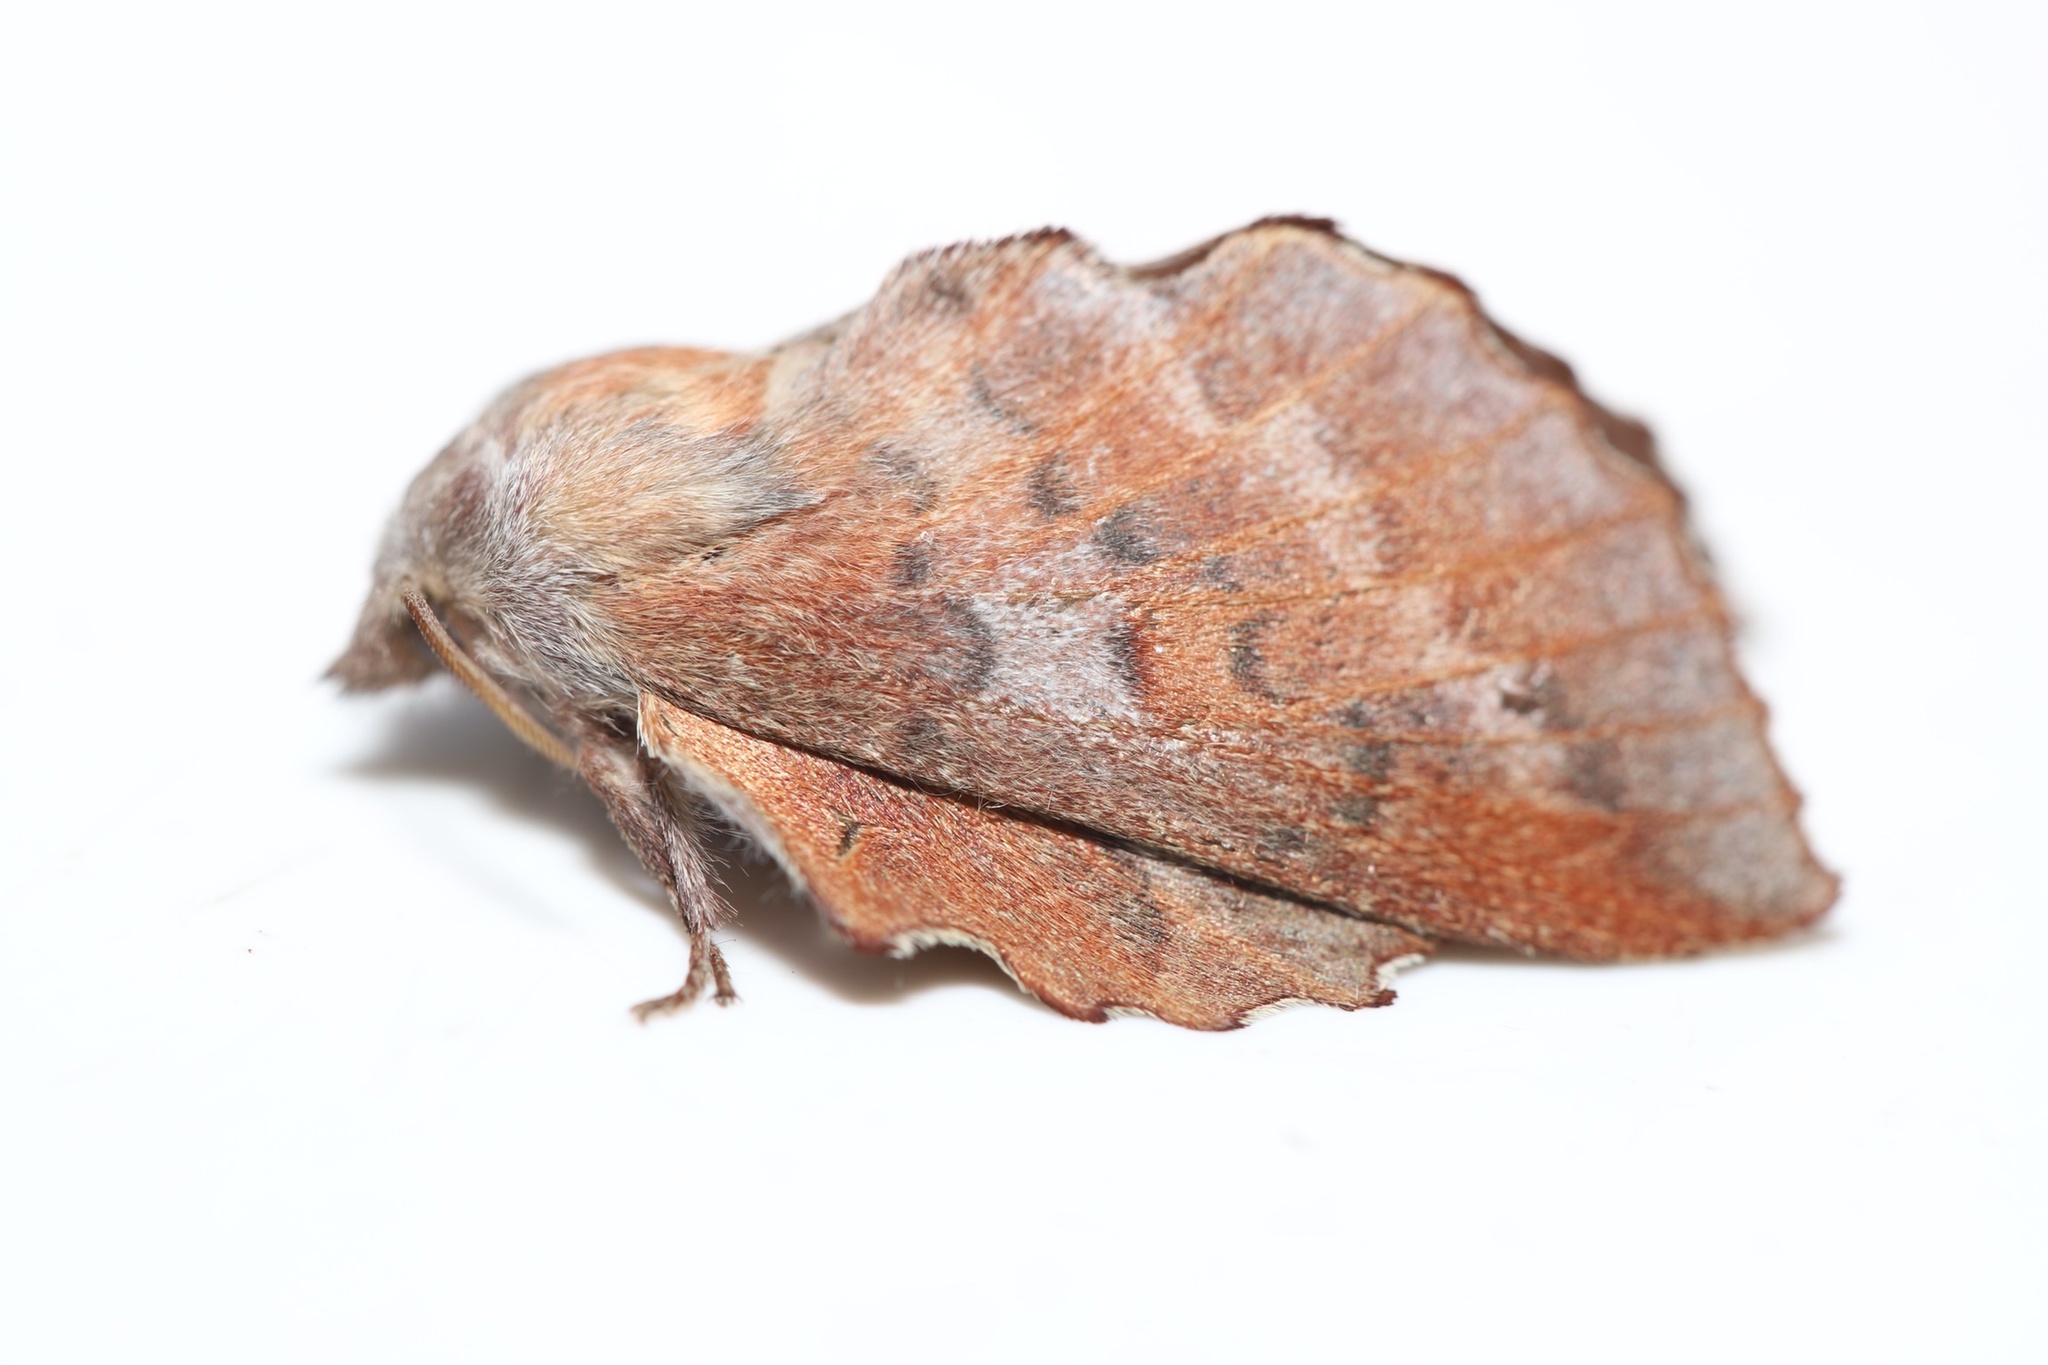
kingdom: Animalia
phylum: Arthropoda
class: Insecta
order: Lepidoptera
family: Lasiocampidae
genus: Phyllodesma
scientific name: Phyllodesma americana
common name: American lappet moth
